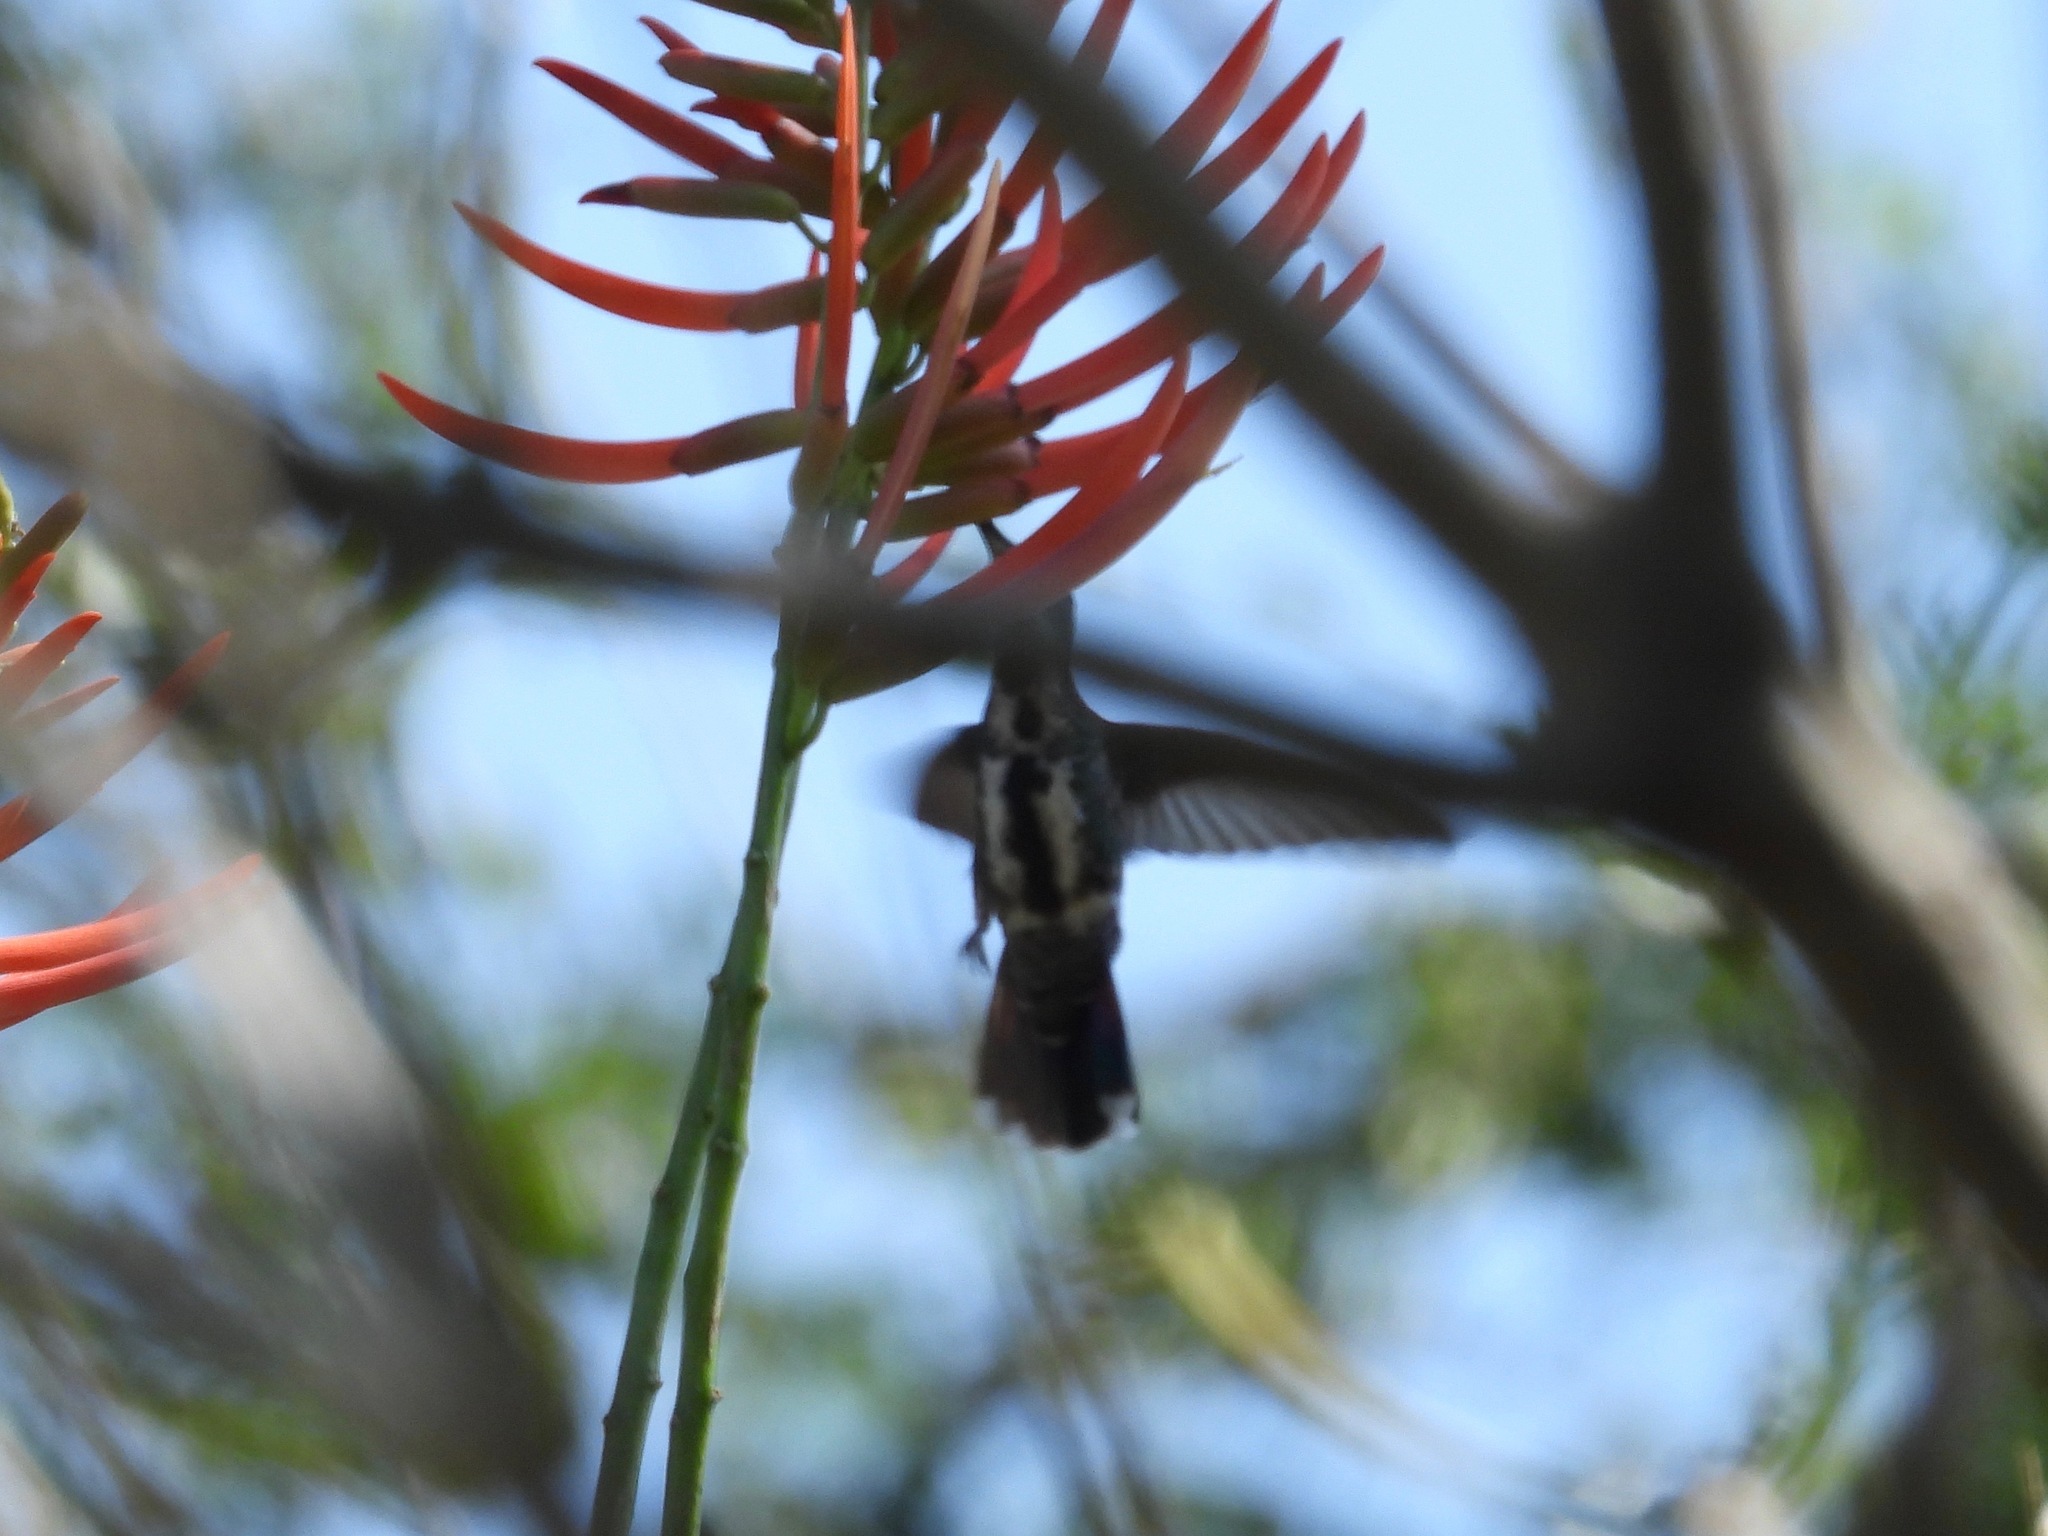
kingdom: Animalia
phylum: Chordata
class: Aves
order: Apodiformes
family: Trochilidae
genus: Anthracothorax
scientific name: Anthracothorax prevostii
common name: Green-breasted mango
